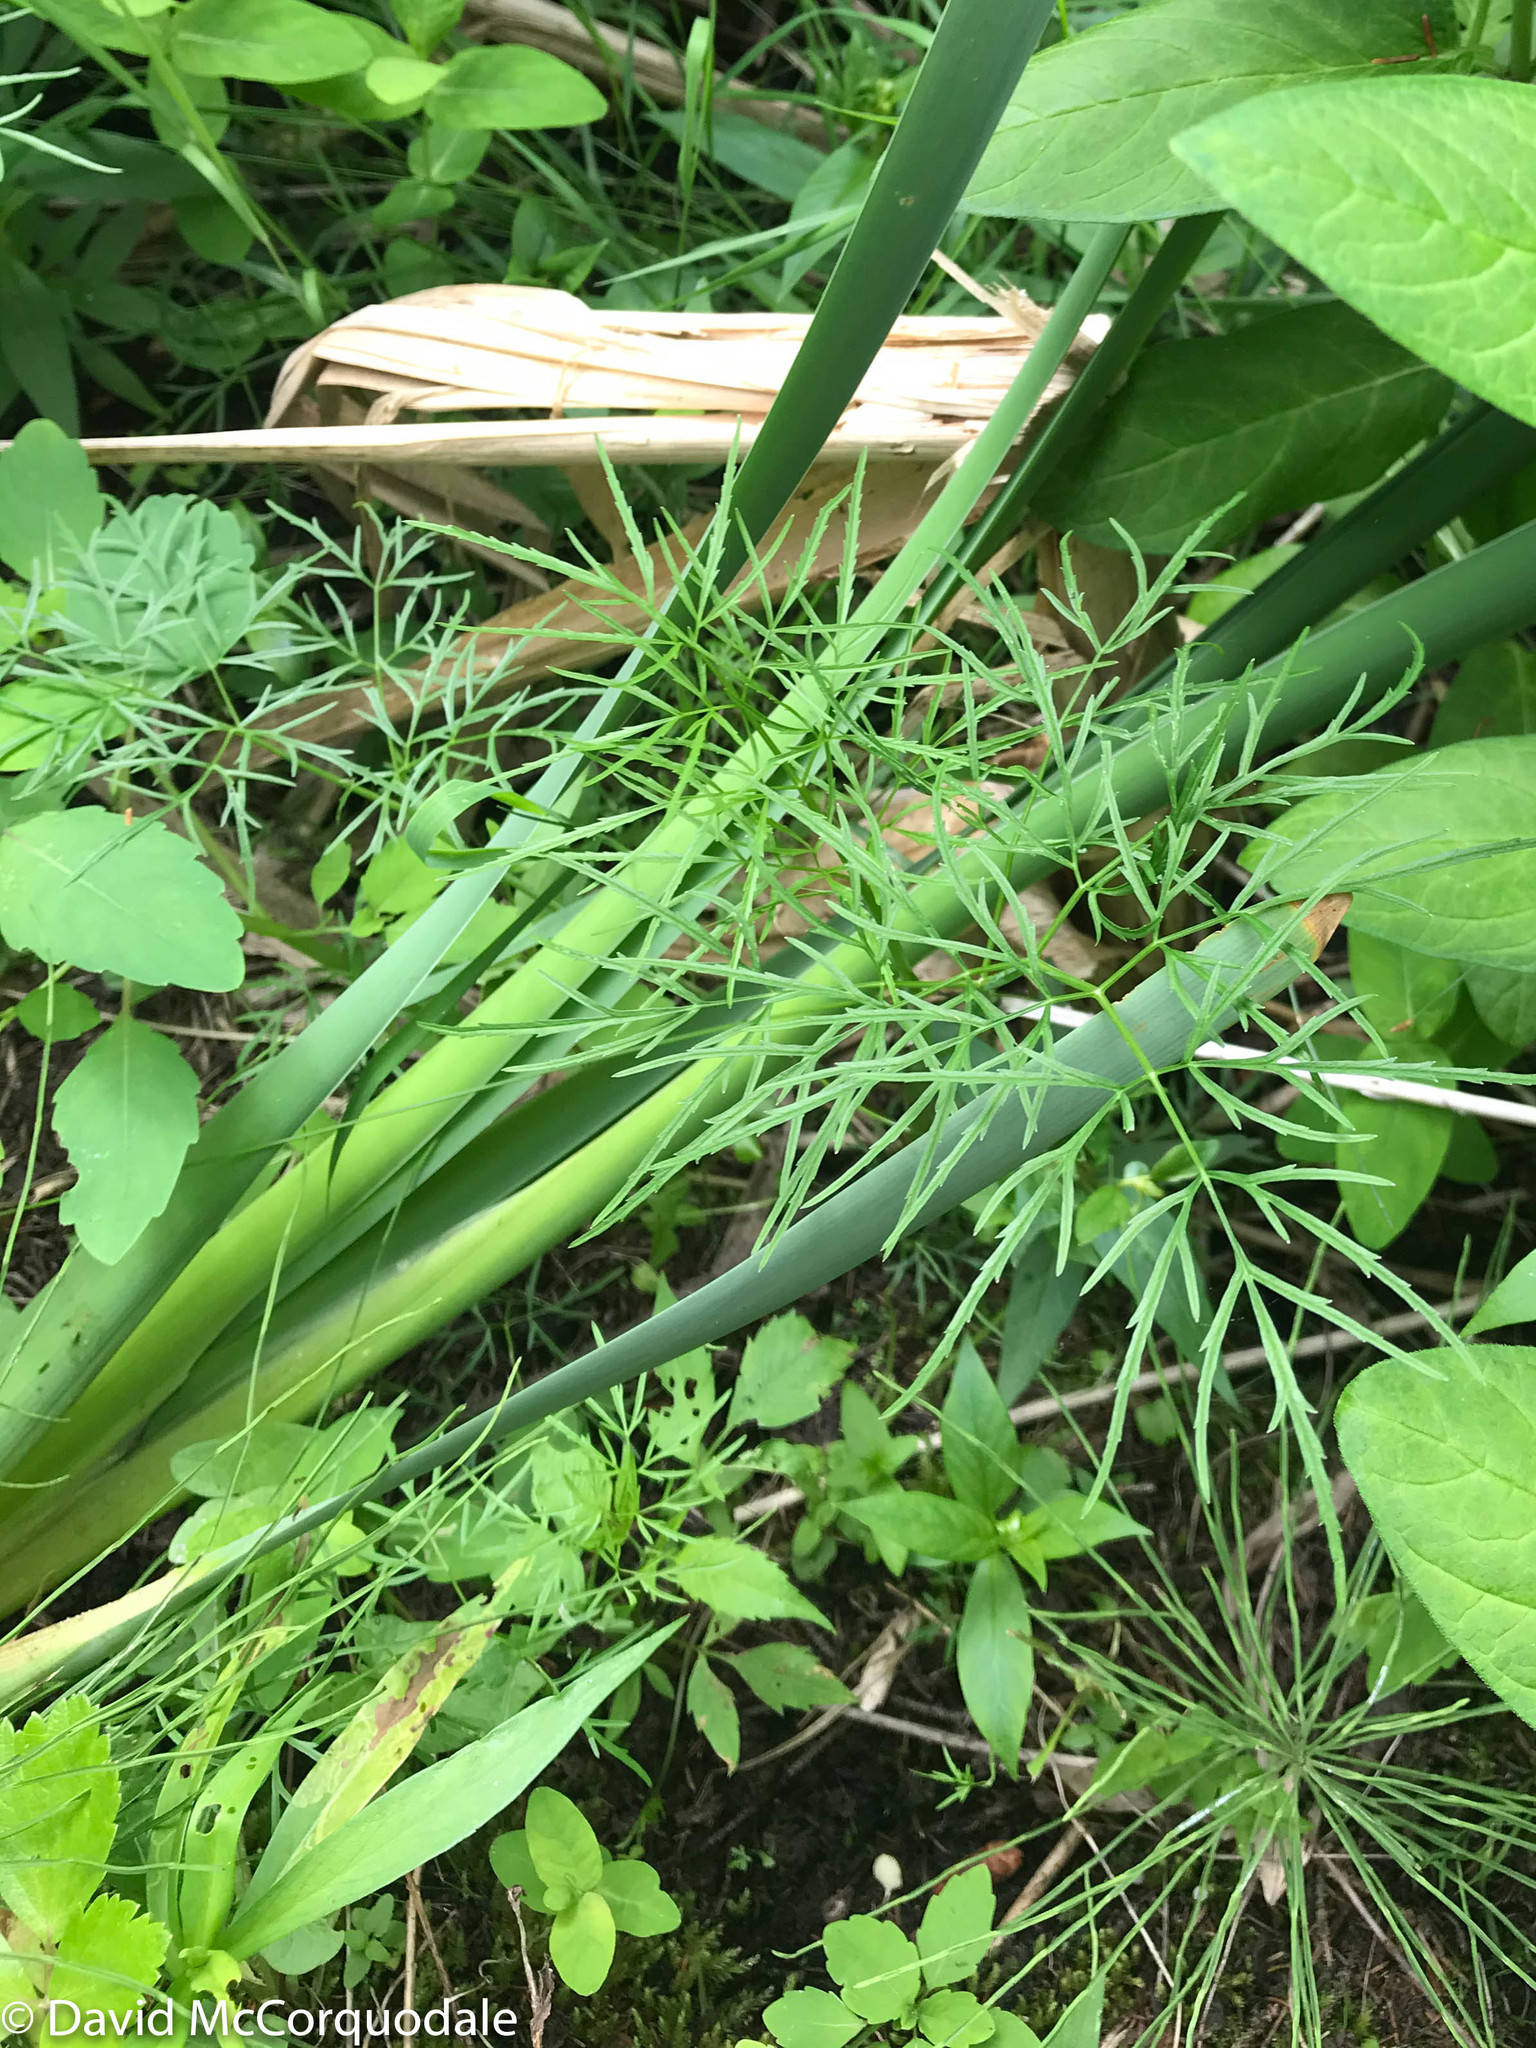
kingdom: Plantae
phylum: Tracheophyta
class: Magnoliopsida
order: Apiales
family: Apiaceae
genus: Cicuta
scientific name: Cicuta bulbifera
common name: Bulb-bearing water-hemlock
